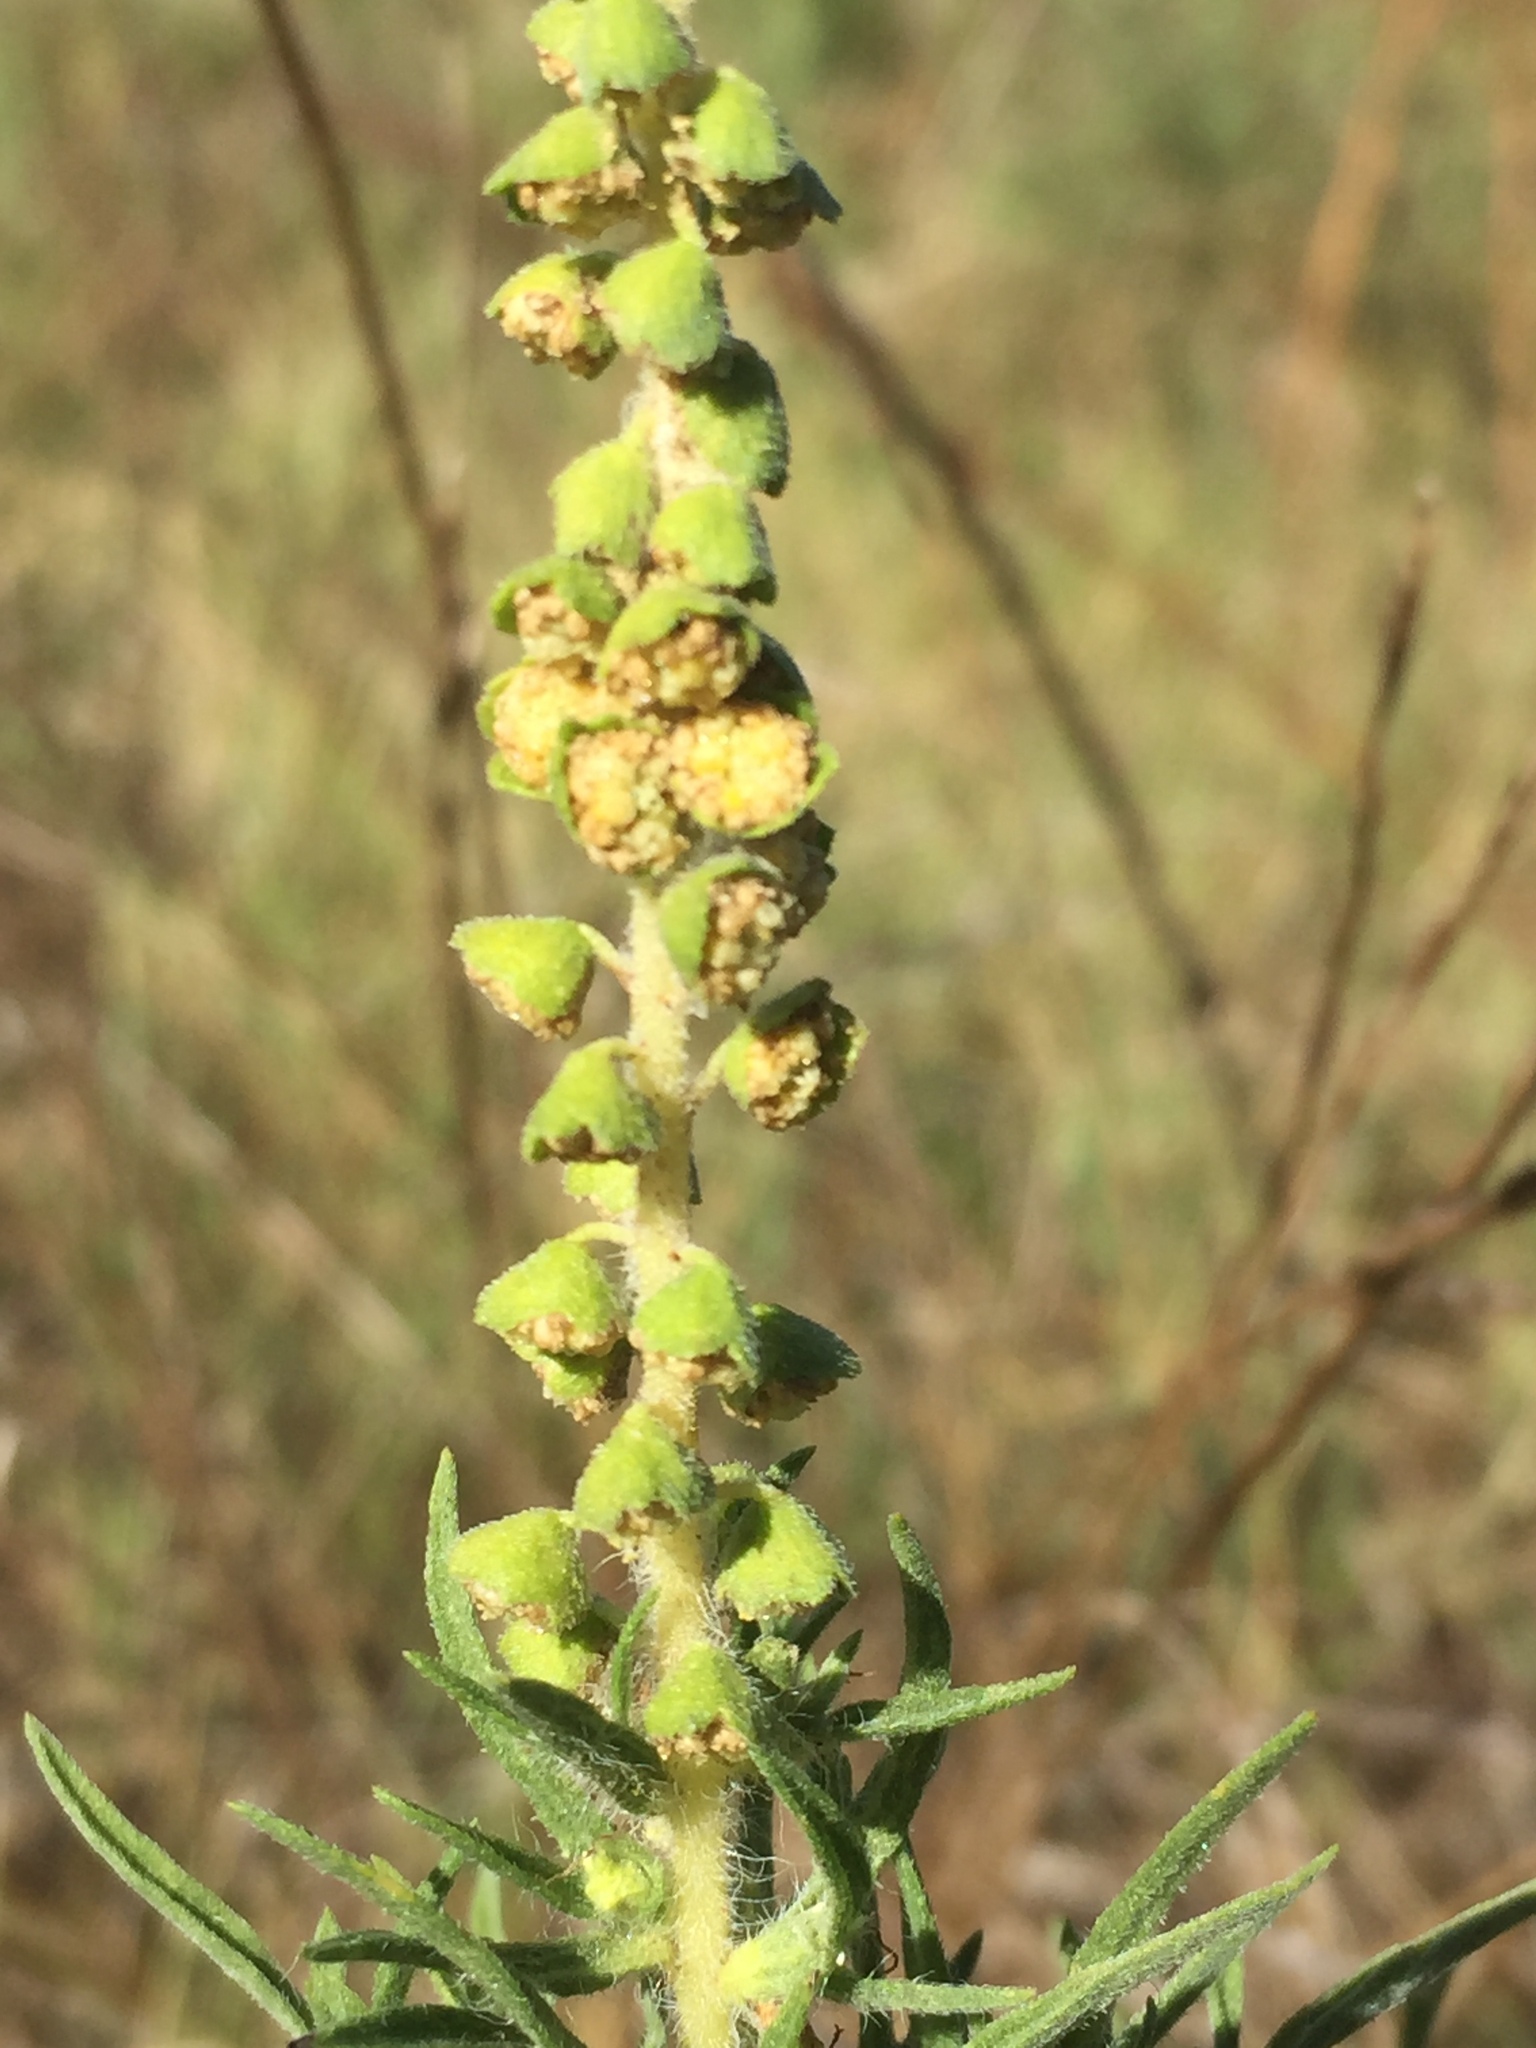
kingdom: Plantae
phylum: Tracheophyta
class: Magnoliopsida
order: Asterales
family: Asteraceae
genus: Ambrosia
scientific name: Ambrosia tenuifolia
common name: Lacy ambrosia
